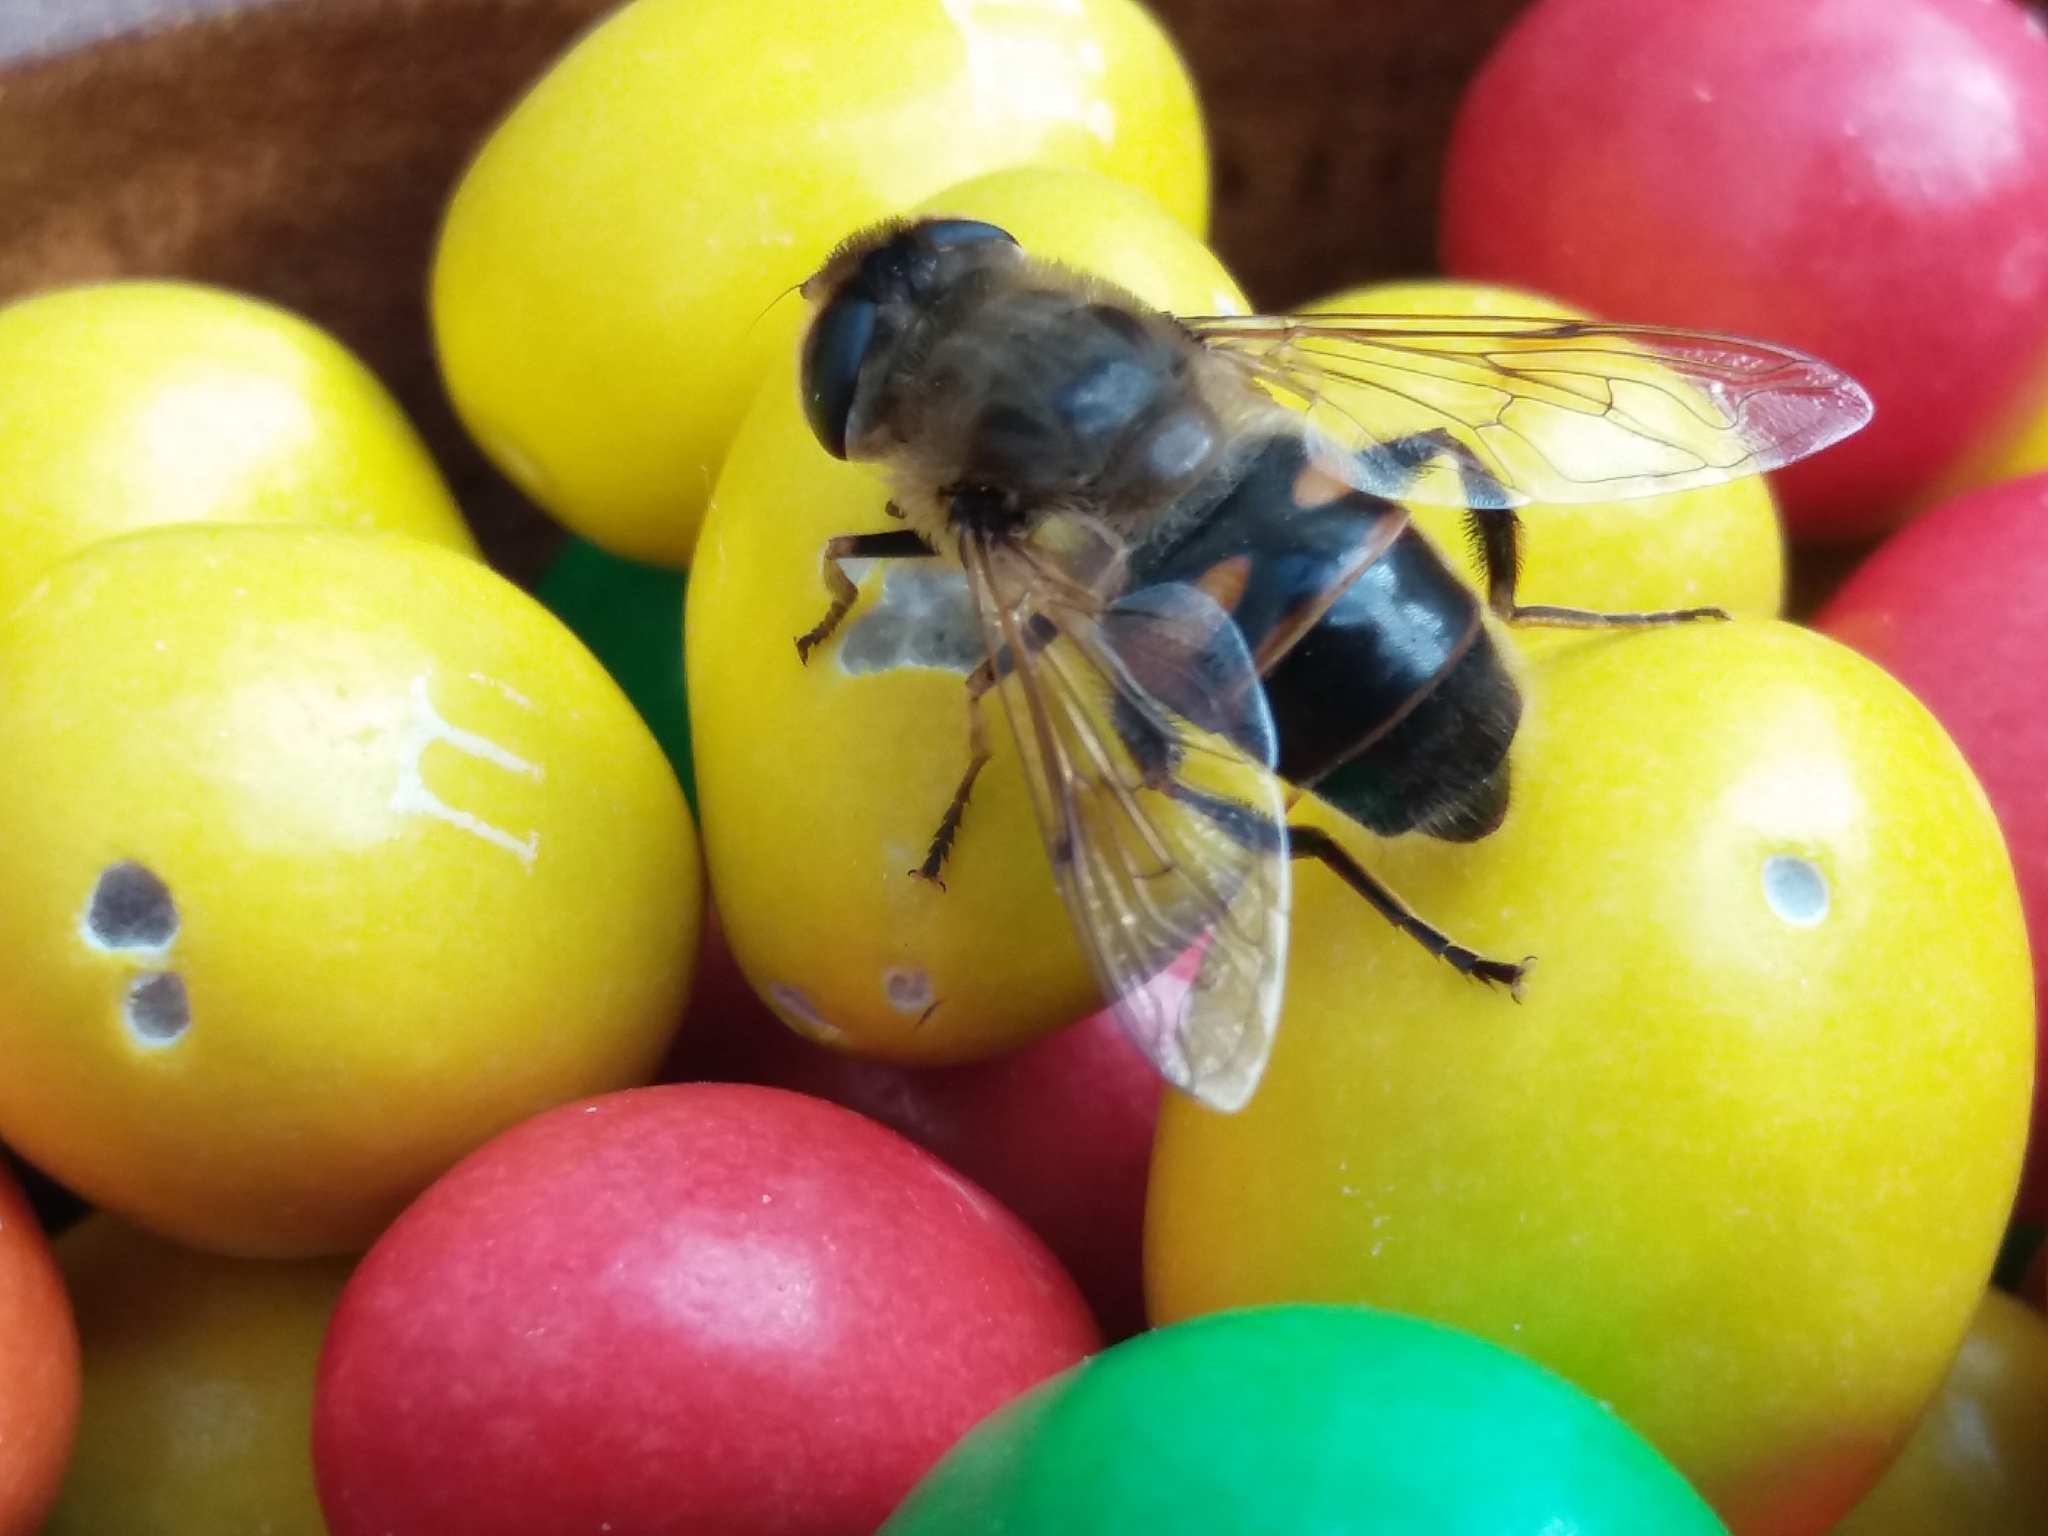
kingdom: Animalia
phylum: Arthropoda
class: Insecta
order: Diptera
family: Syrphidae
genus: Eristalis
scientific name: Eristalis tenax
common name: Drone fly
